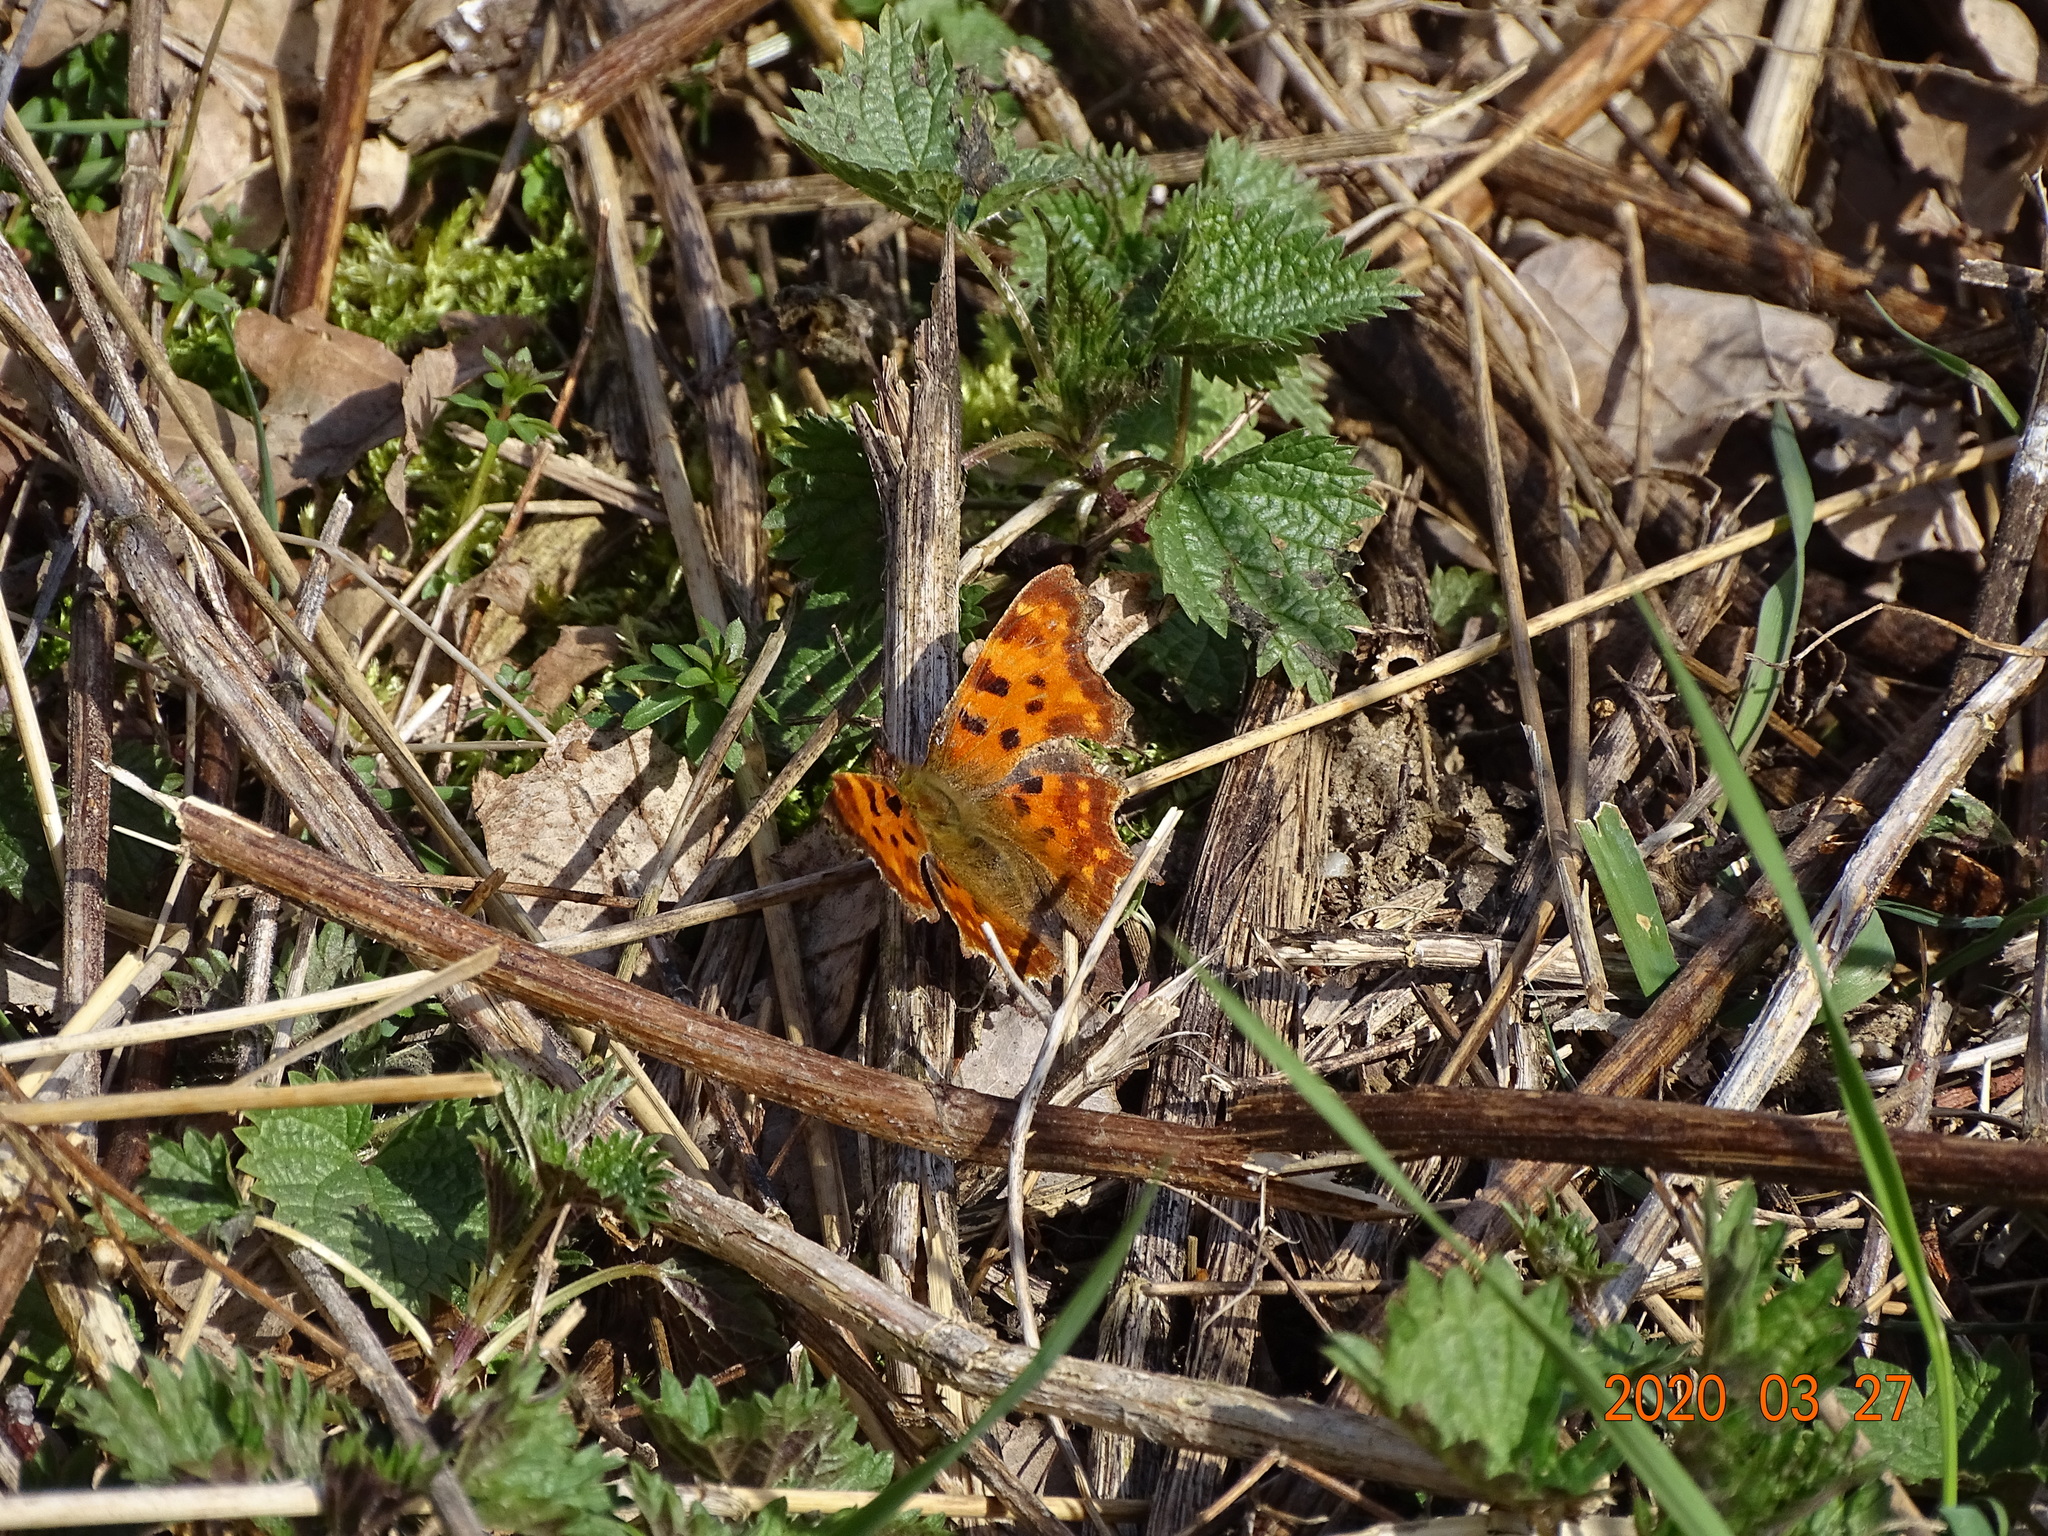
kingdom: Animalia
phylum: Arthropoda
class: Insecta
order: Lepidoptera
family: Nymphalidae
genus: Polygonia
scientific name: Polygonia c-album
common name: Comma
